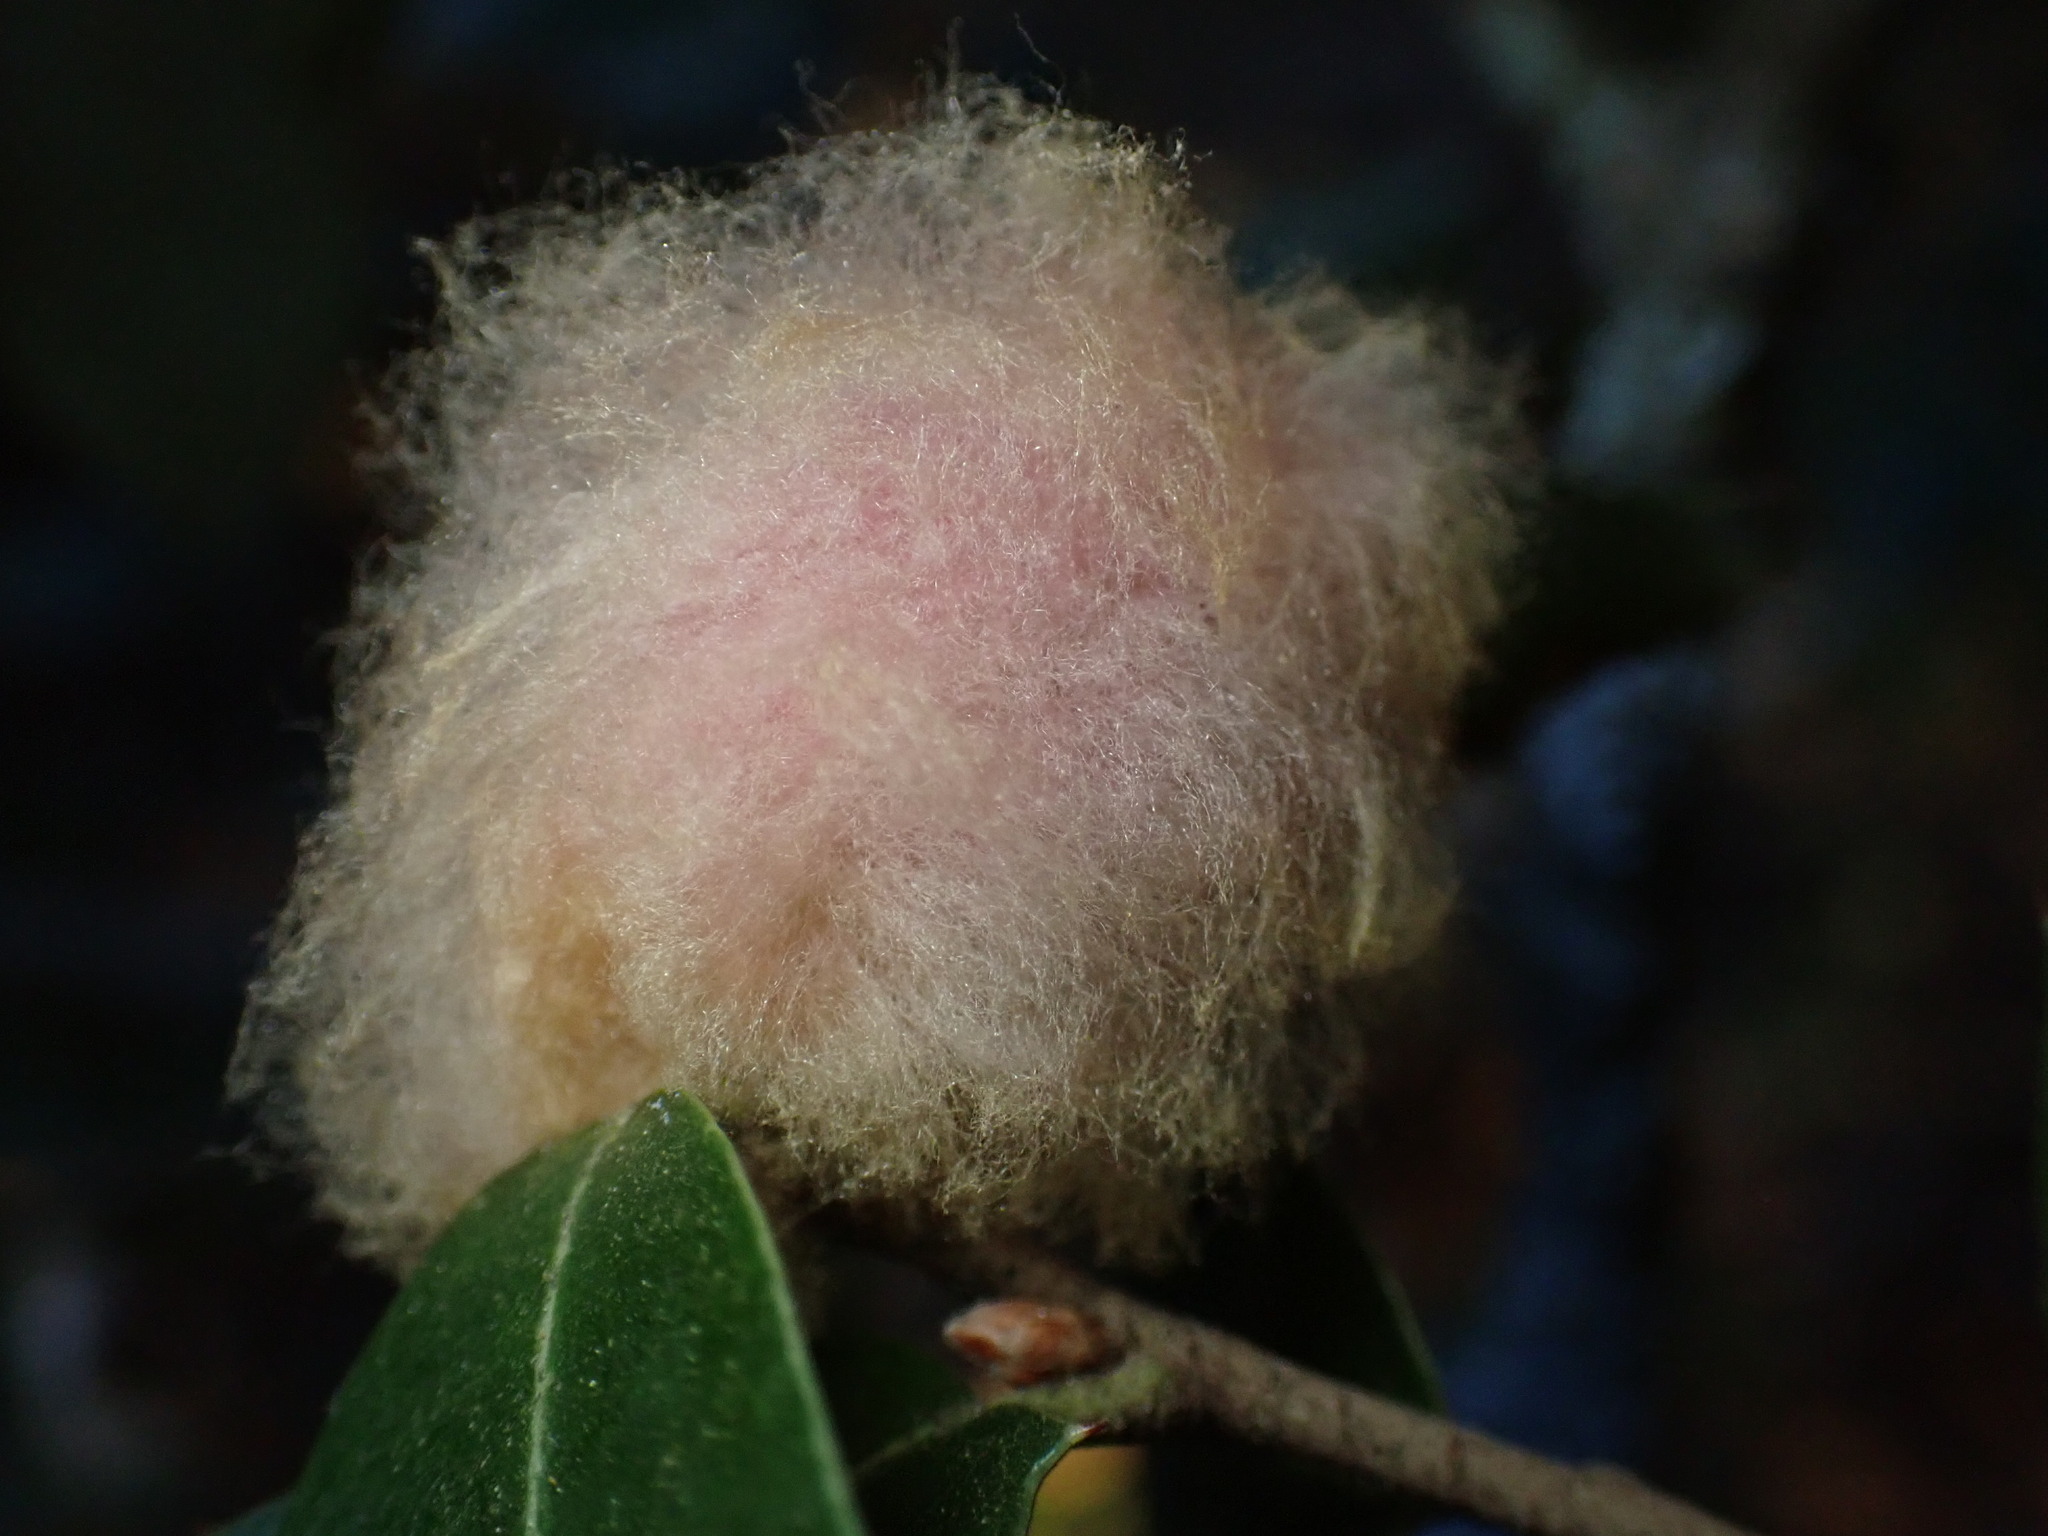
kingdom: Animalia
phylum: Arthropoda
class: Insecta
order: Hymenoptera
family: Cynipidae
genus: Heteroecus
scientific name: Heteroecus
